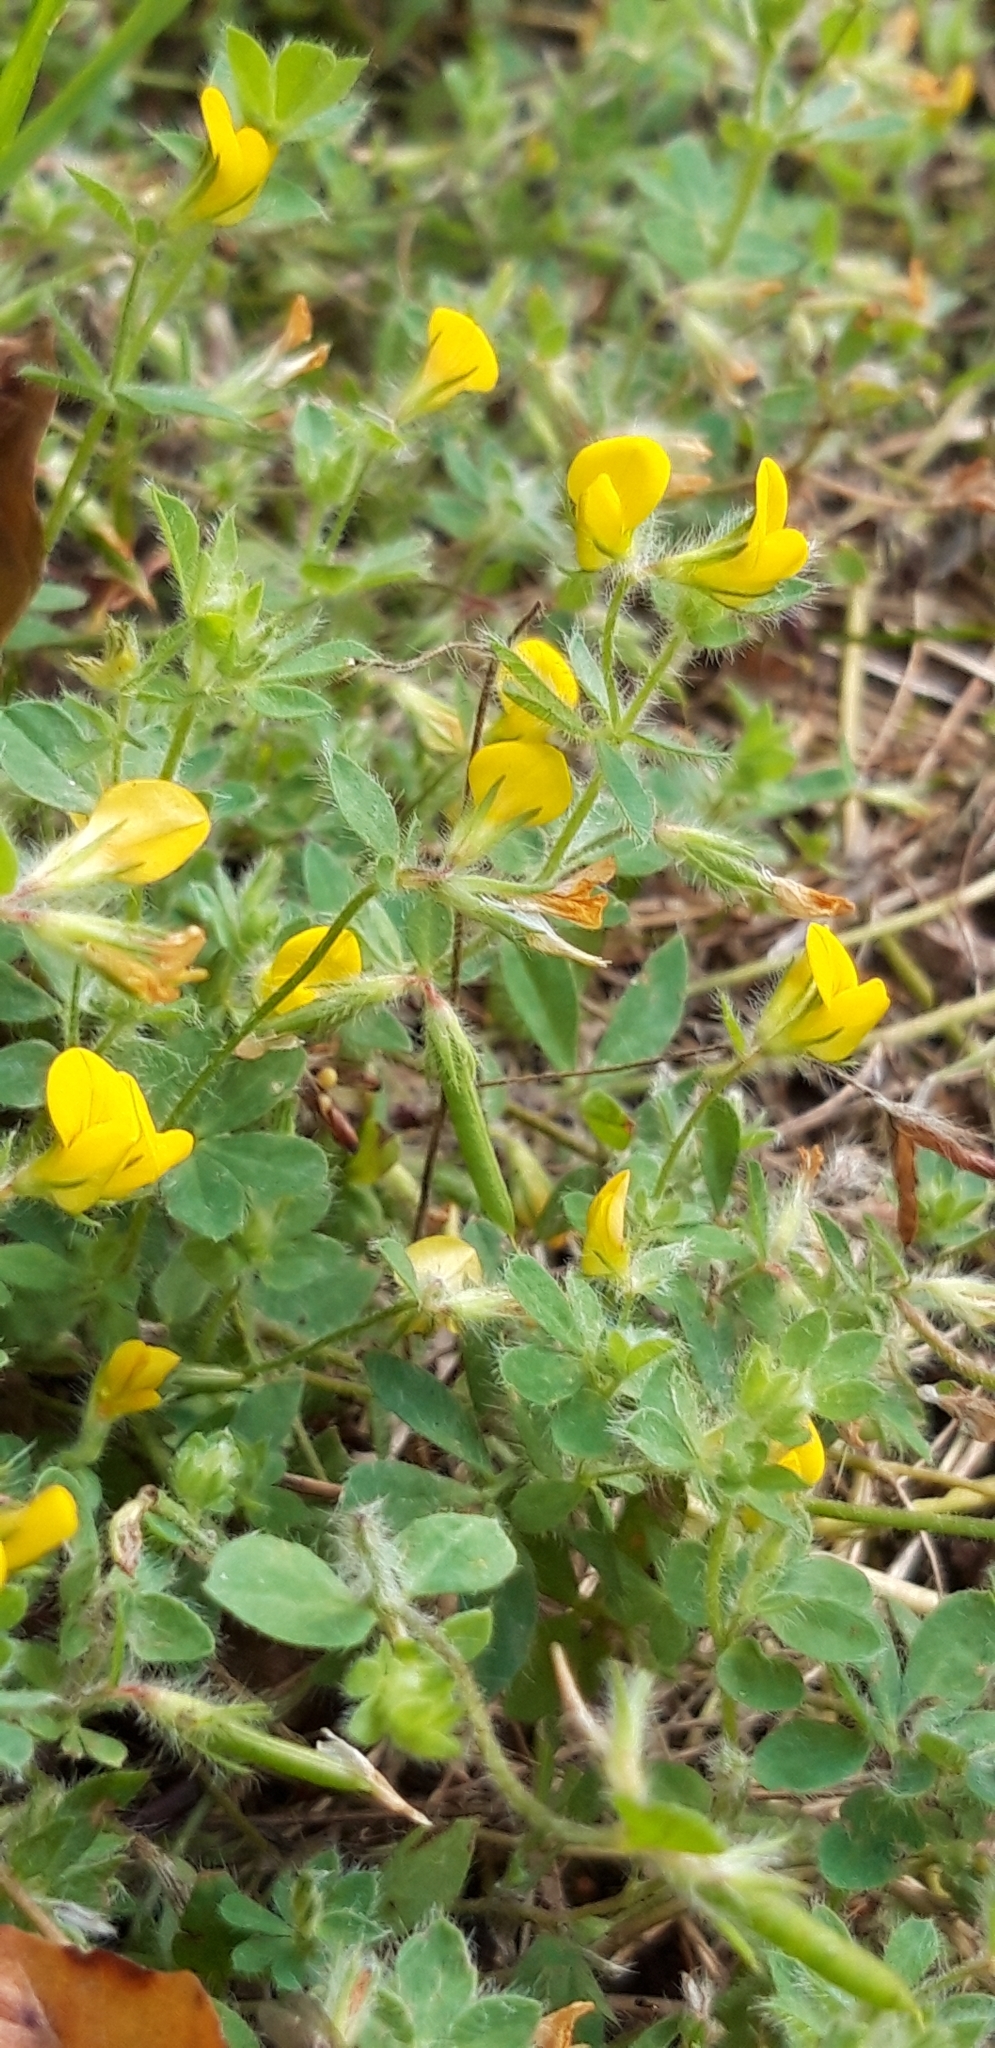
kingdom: Plantae
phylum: Tracheophyta
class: Magnoliopsida
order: Fabales
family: Fabaceae
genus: Lotus
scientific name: Lotus subbiflorus
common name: Hairy bird's-foot trefoil
